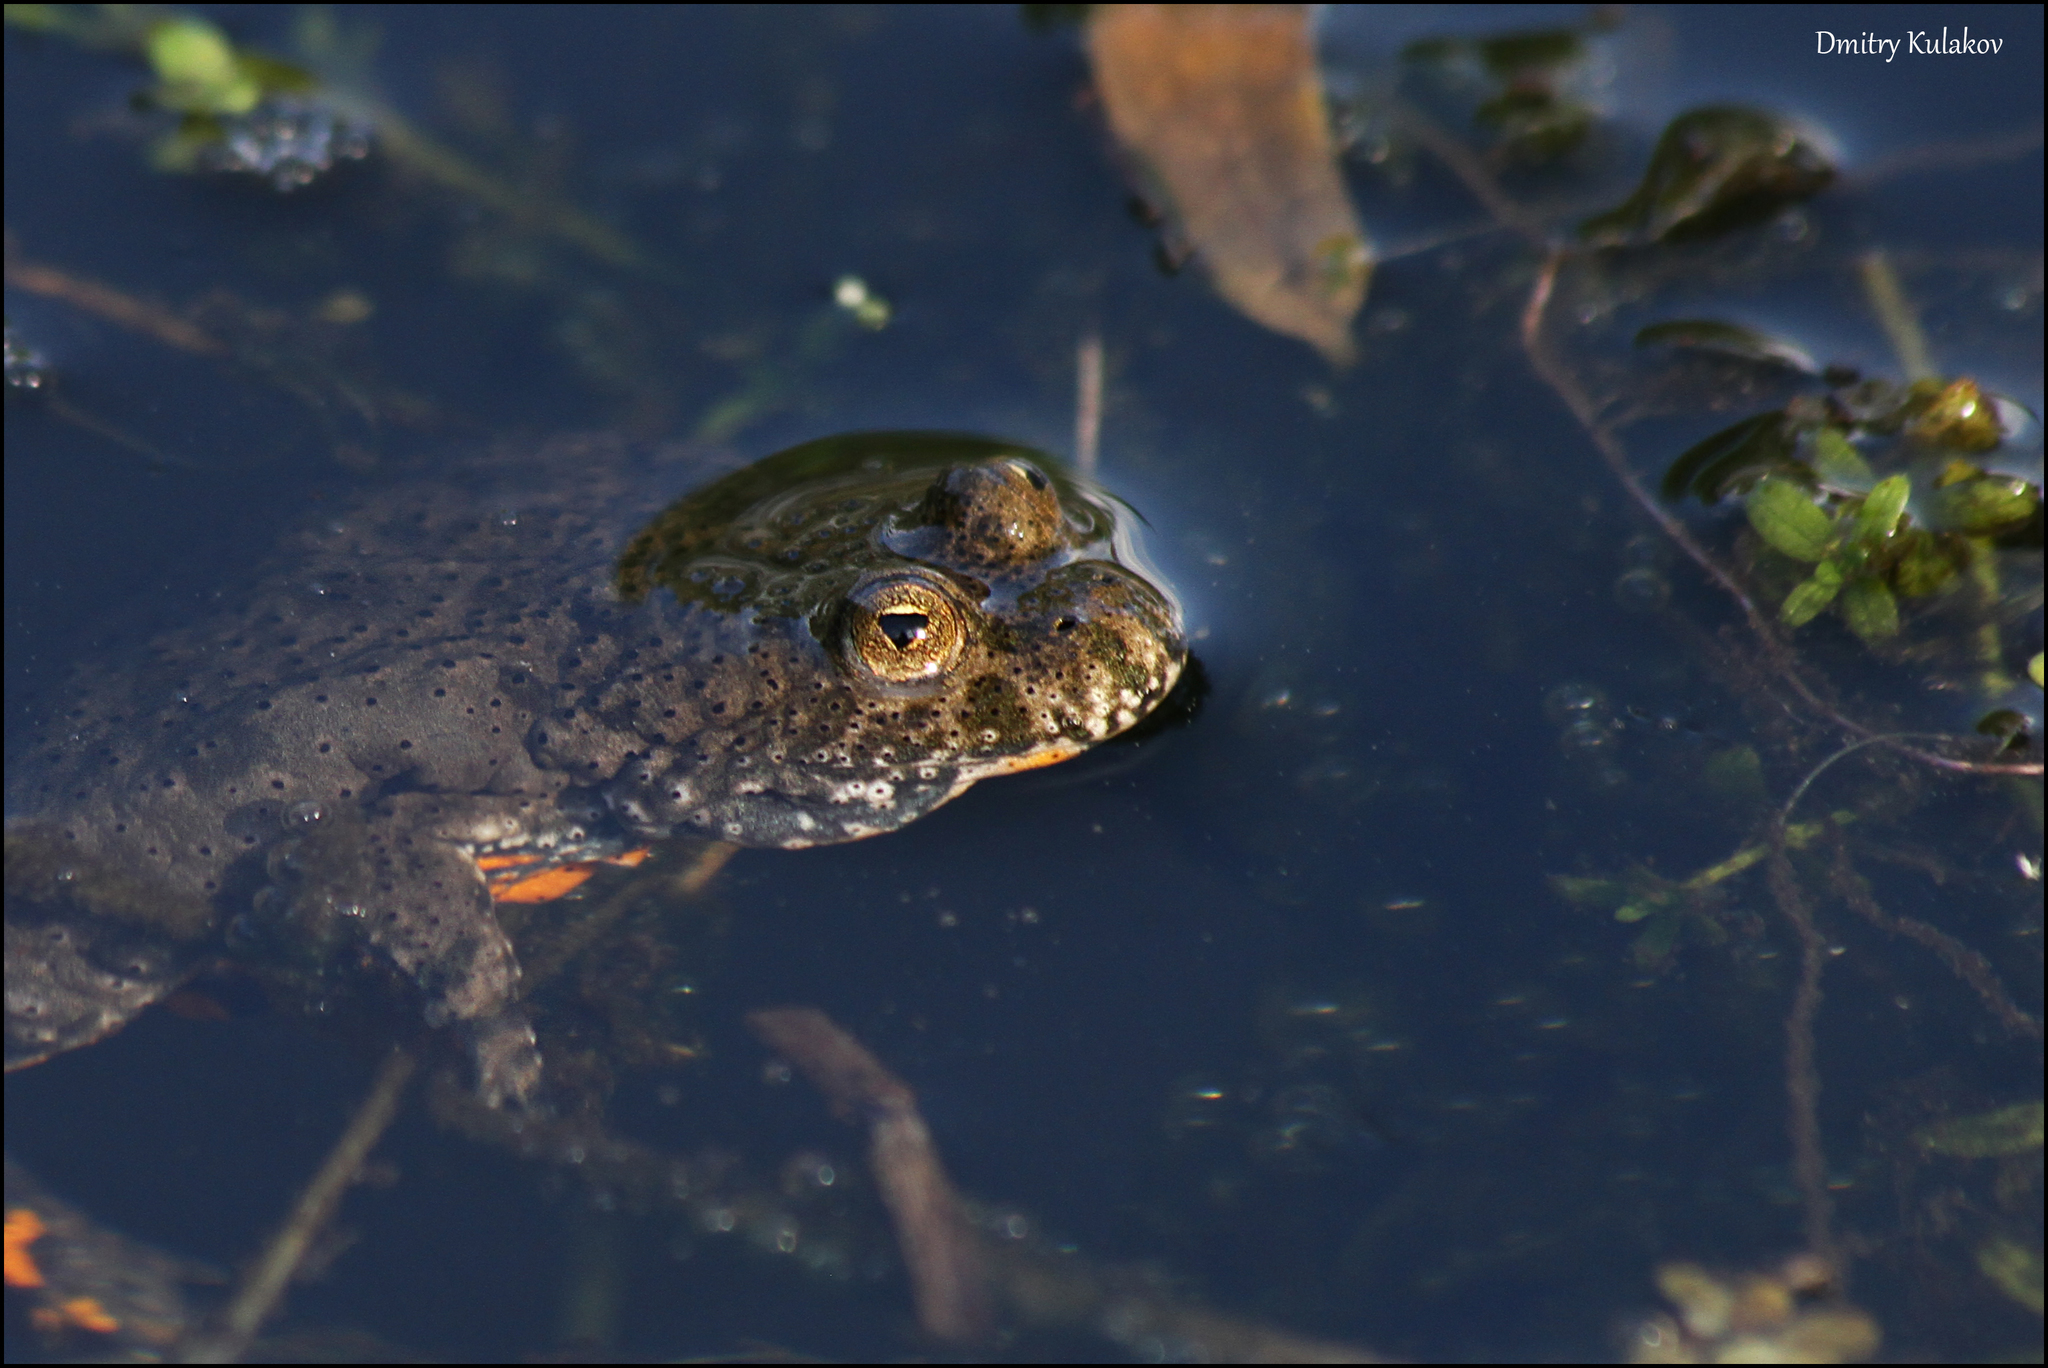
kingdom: Animalia
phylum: Chordata
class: Amphibia
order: Anura
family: Bombinatoridae
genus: Bombina
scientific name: Bombina bombina
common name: Fire-bellied toad
